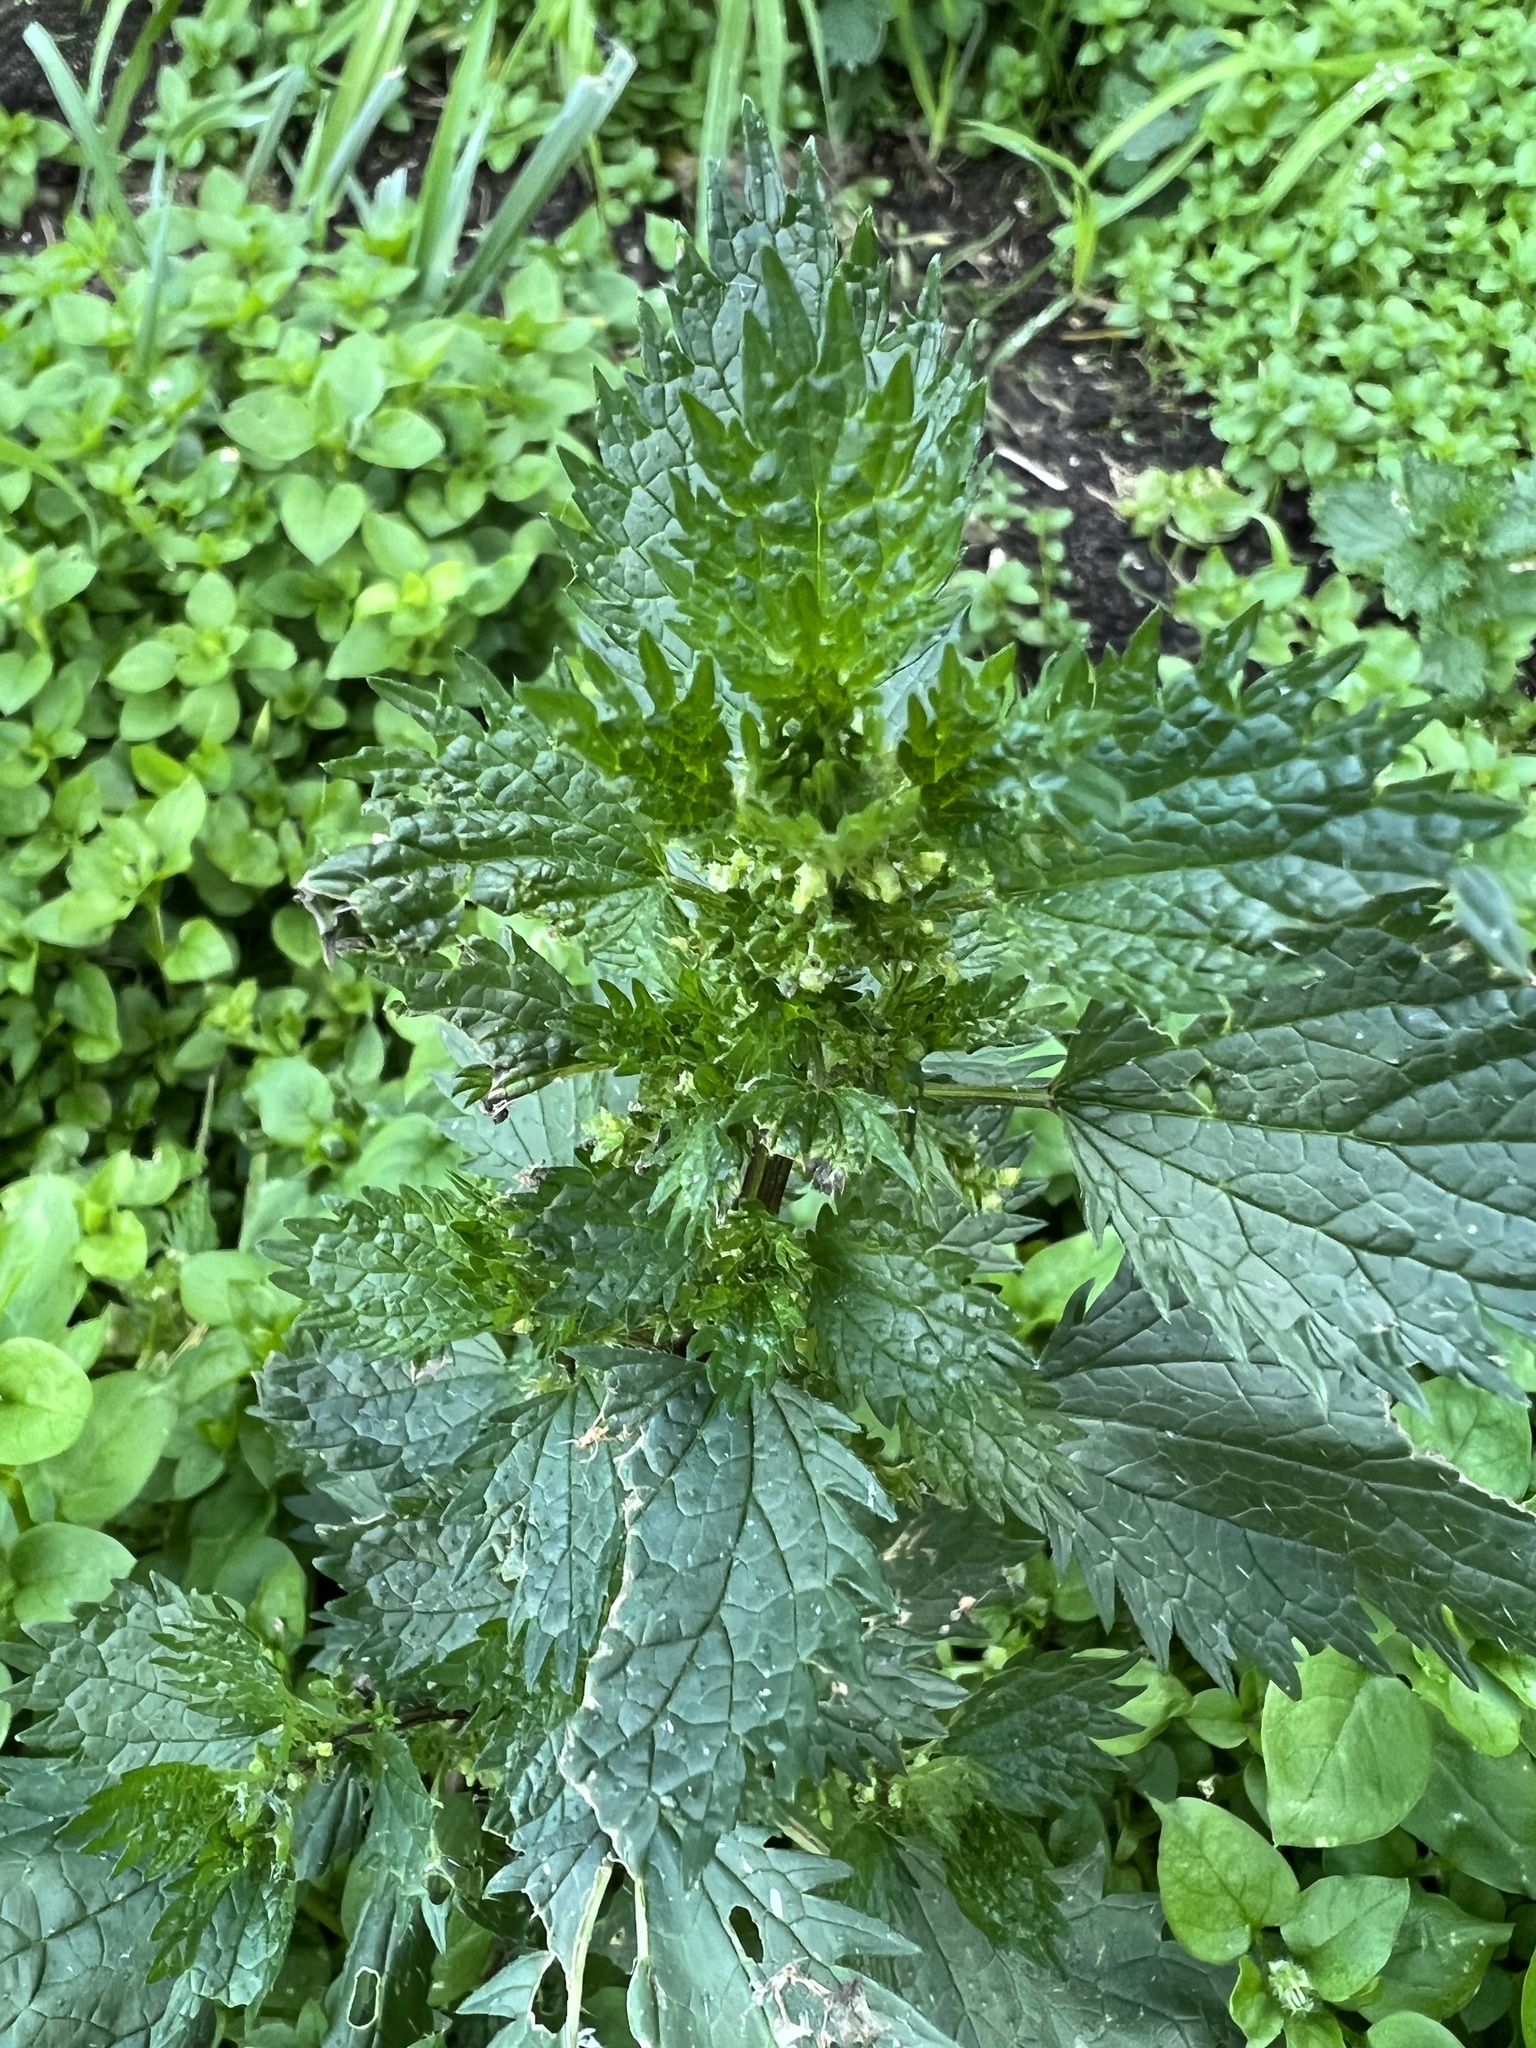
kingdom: Plantae
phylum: Tracheophyta
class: Magnoliopsida
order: Rosales
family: Urticaceae
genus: Urtica
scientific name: Urtica urens
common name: Dwarf nettle
